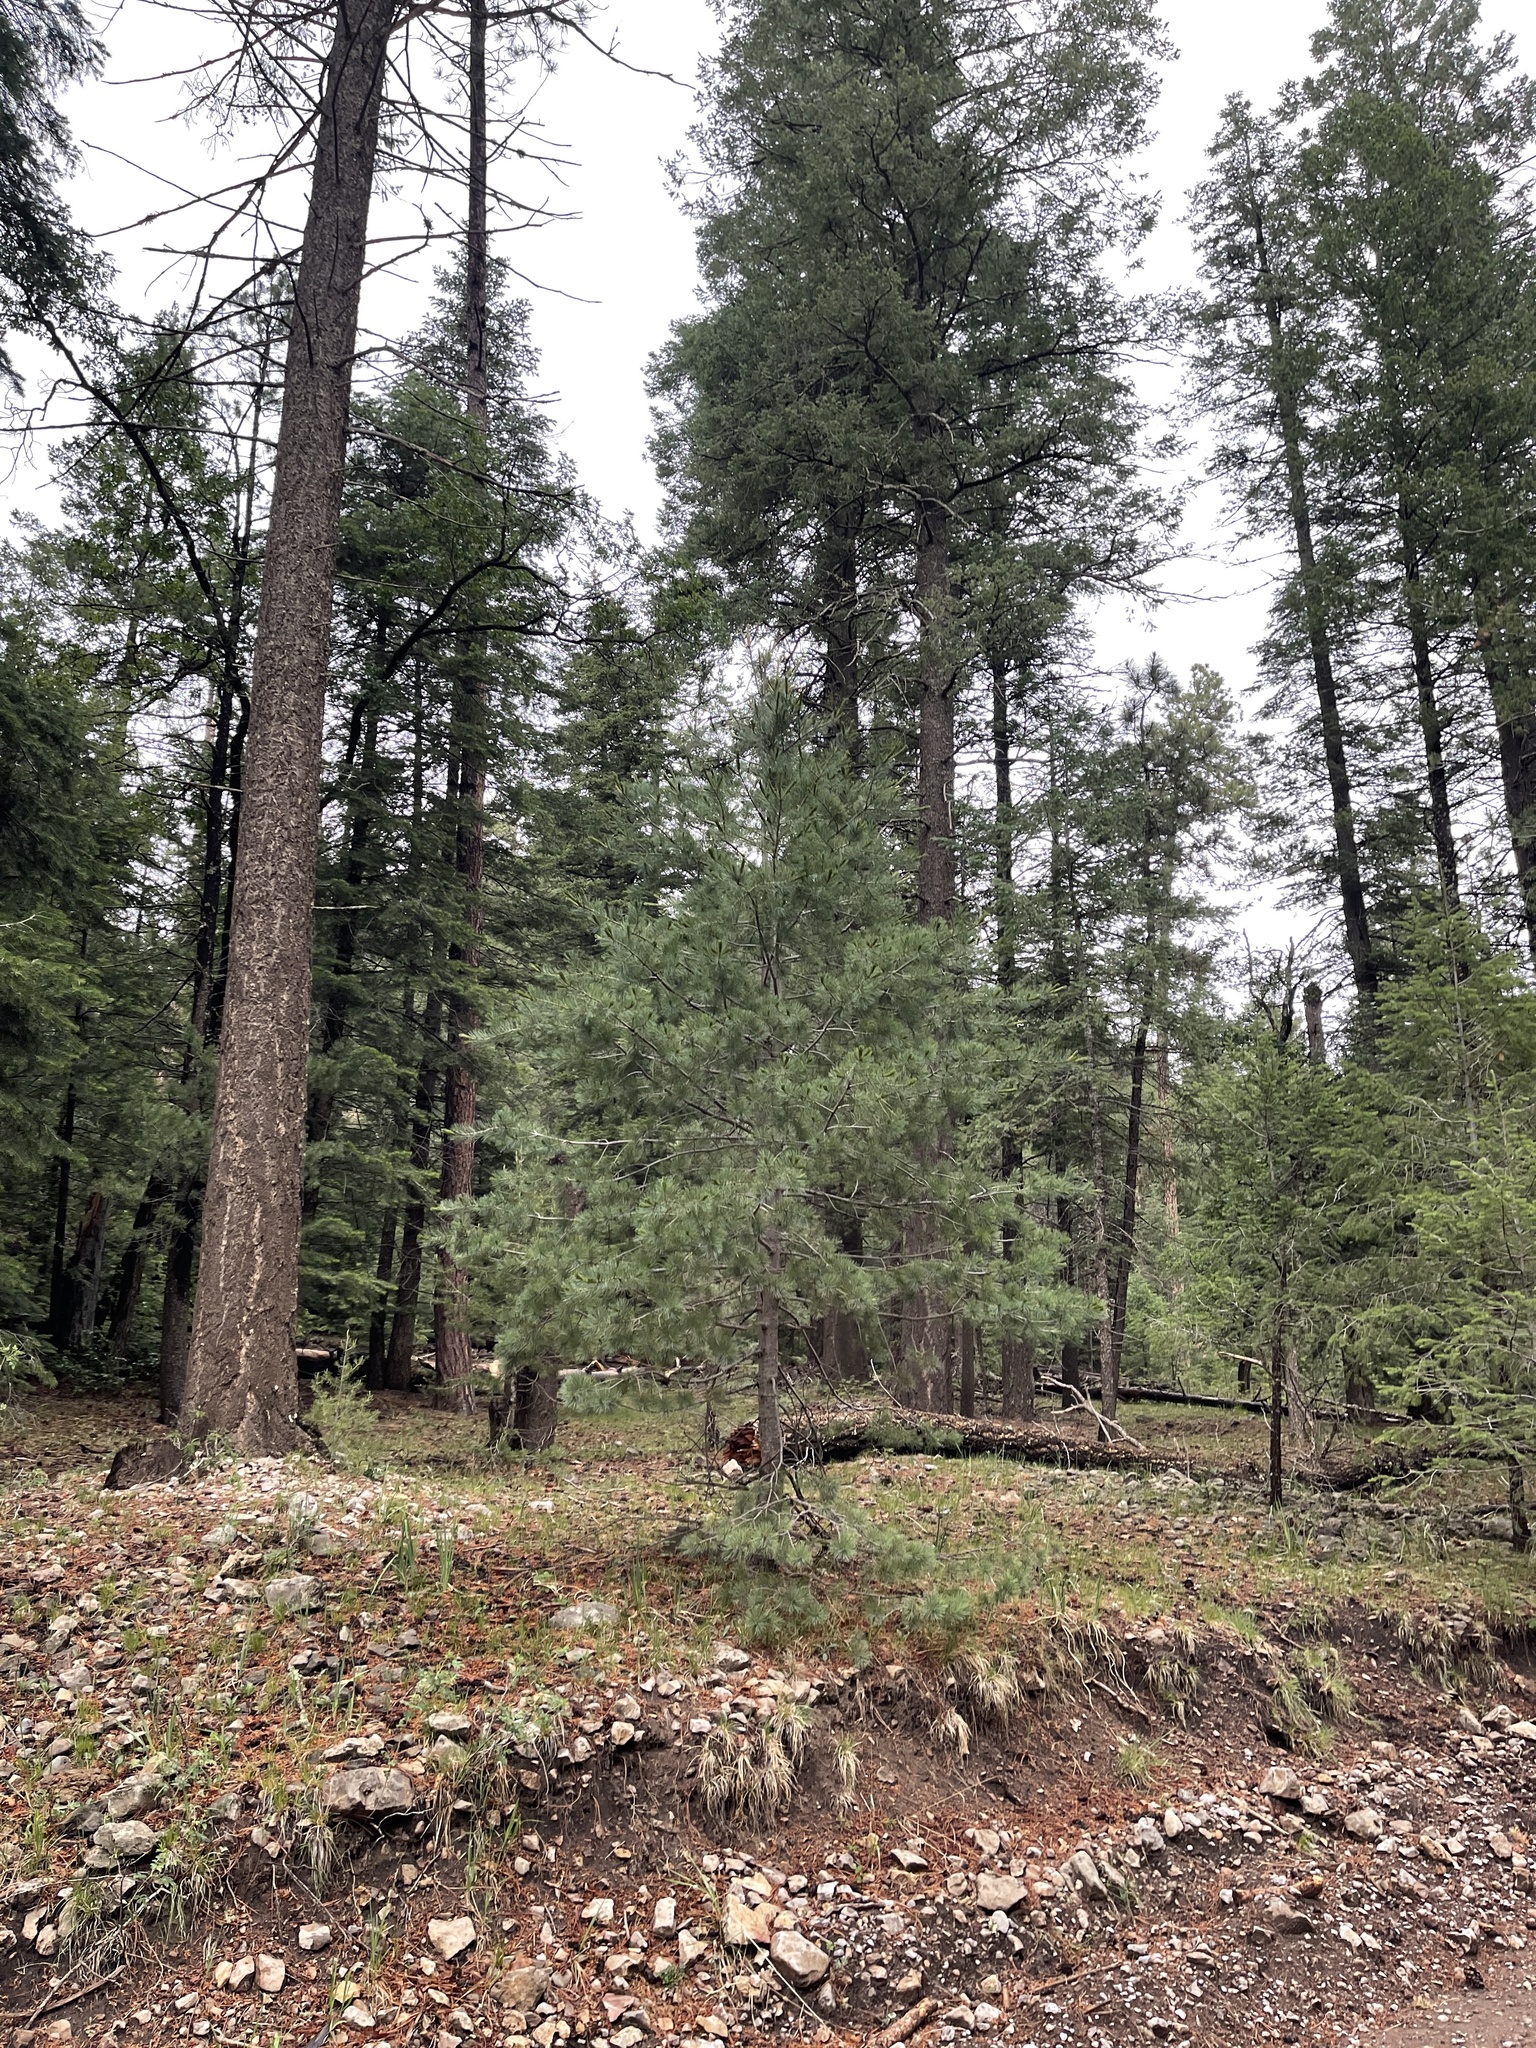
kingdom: Plantae
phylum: Tracheophyta
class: Pinopsida
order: Pinales
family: Pinaceae
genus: Pinus
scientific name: Pinus strobiformis
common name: Southwestern white pine
